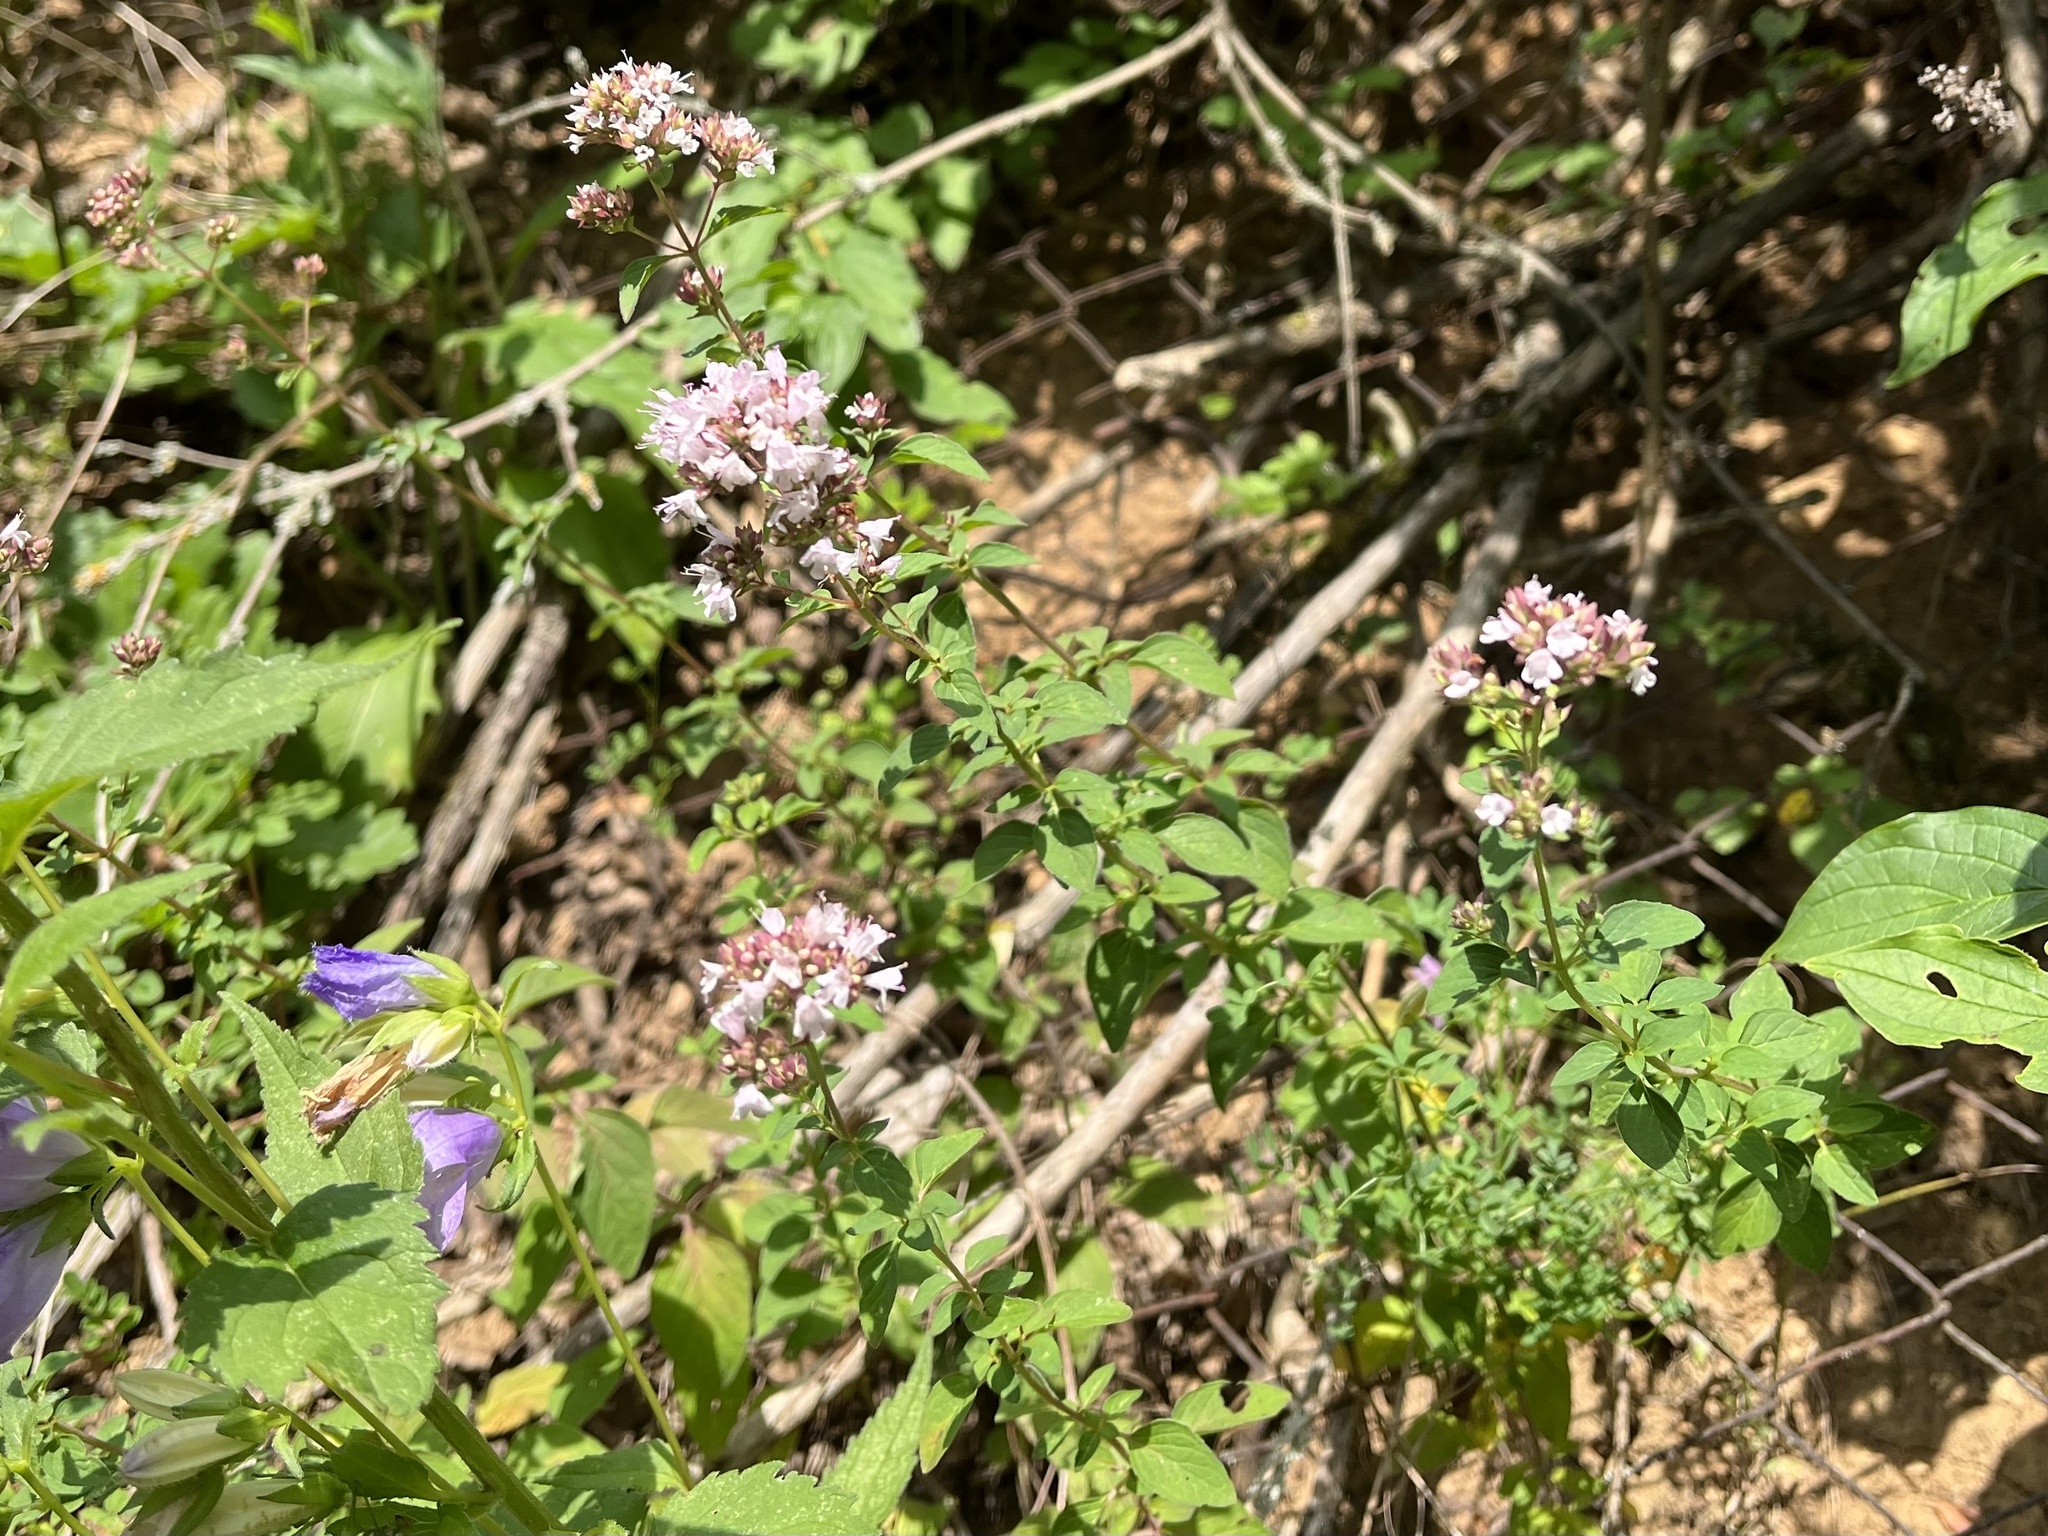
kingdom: Plantae
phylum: Tracheophyta
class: Magnoliopsida
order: Lamiales
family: Lamiaceae
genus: Origanum
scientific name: Origanum vulgare
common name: Wild marjoram
